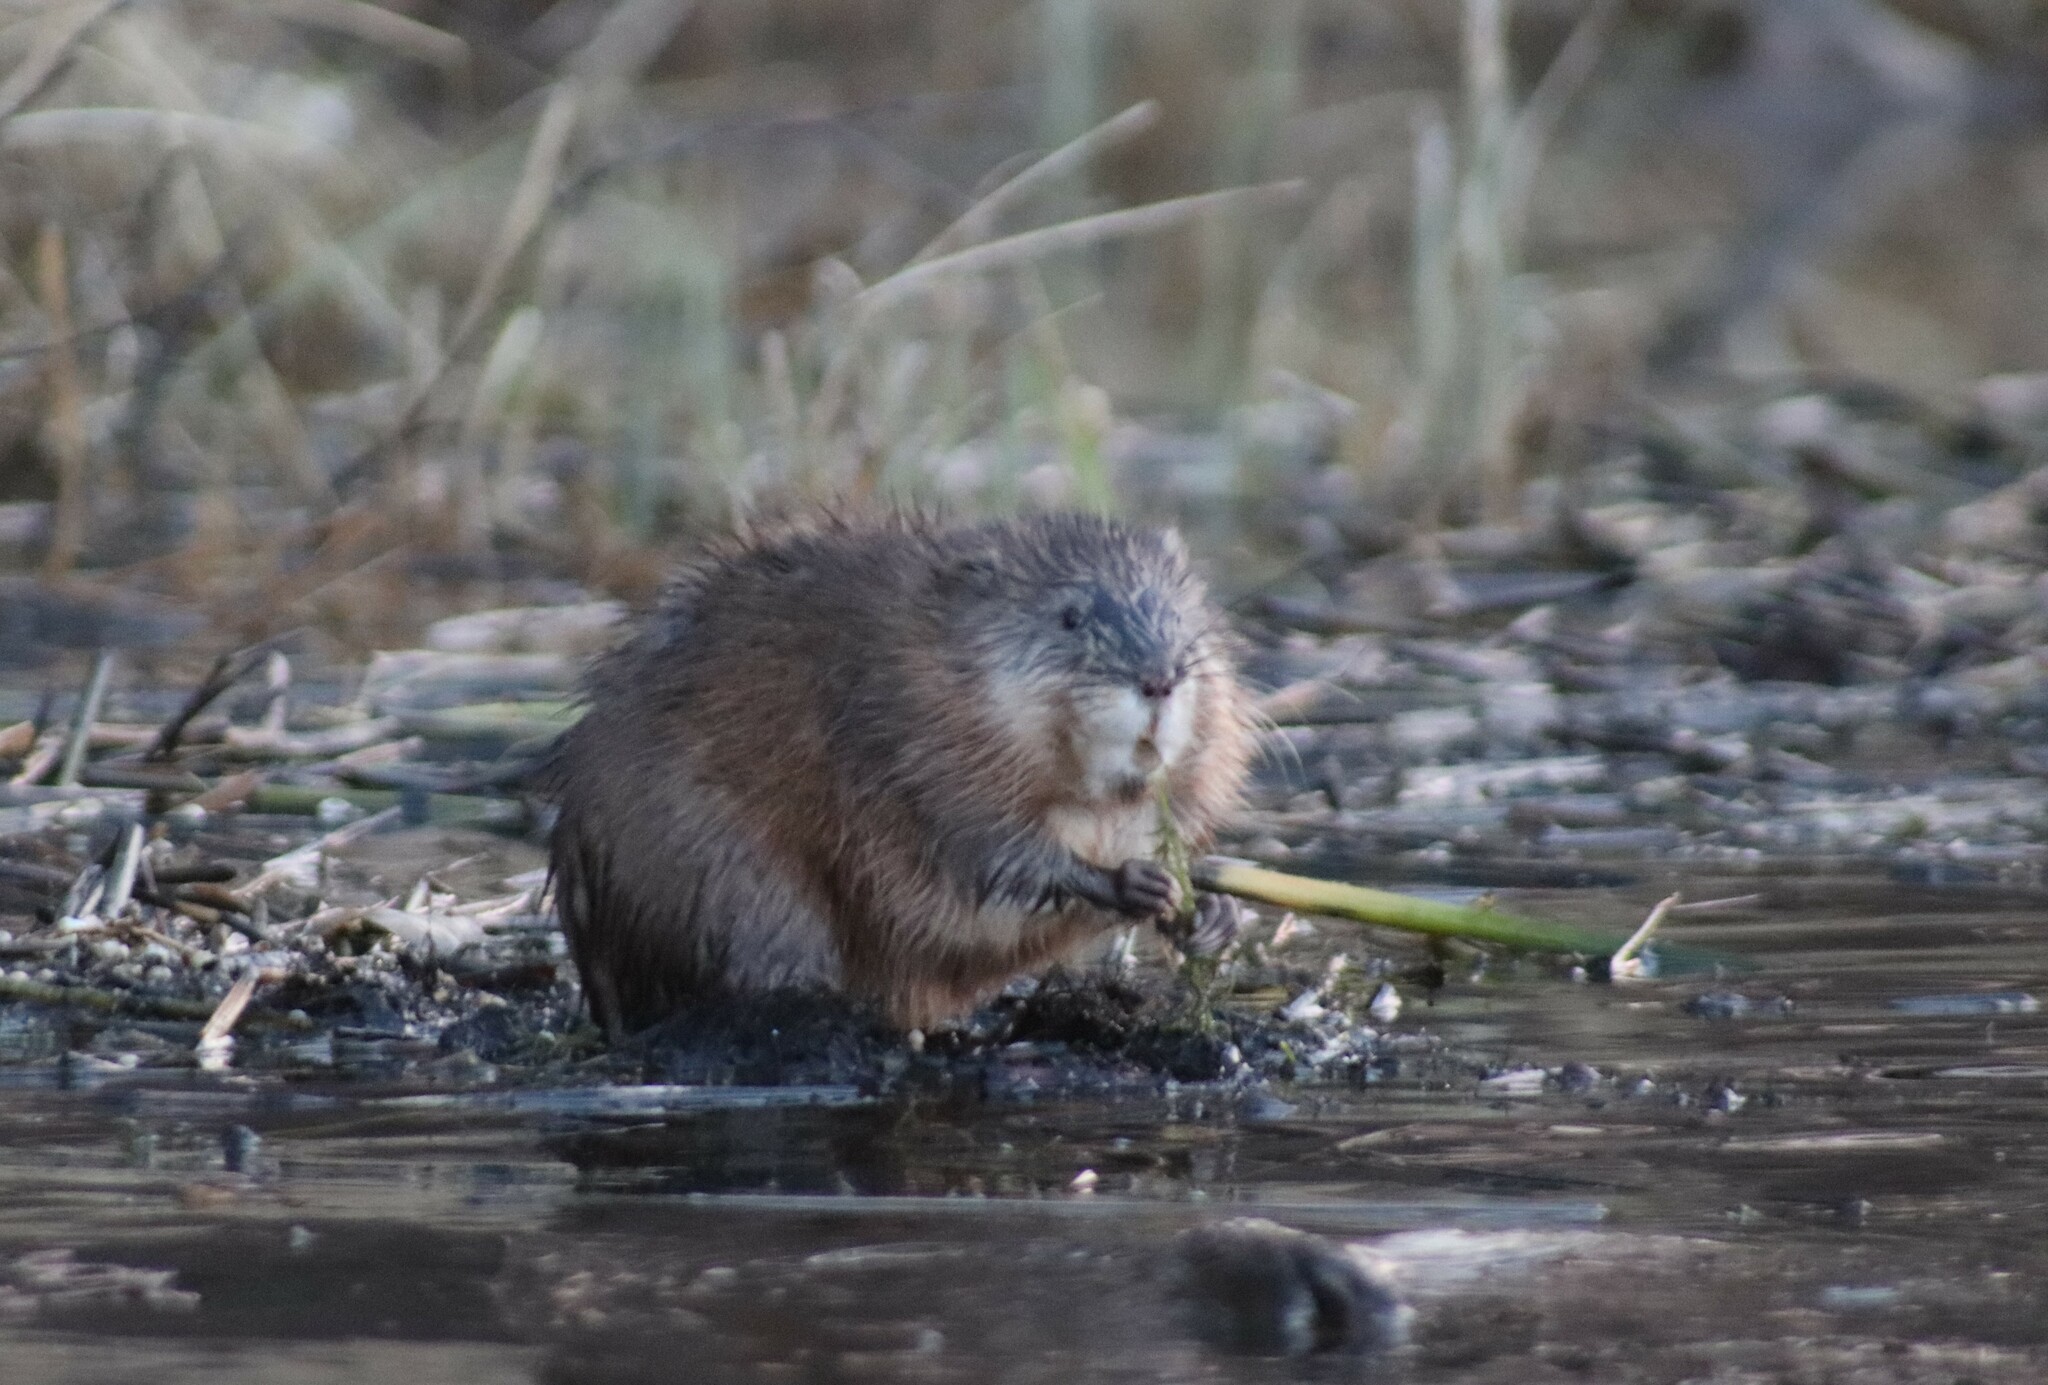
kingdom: Animalia
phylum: Chordata
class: Mammalia
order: Rodentia
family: Cricetidae
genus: Ondatra
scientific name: Ondatra zibethicus
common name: Muskrat
